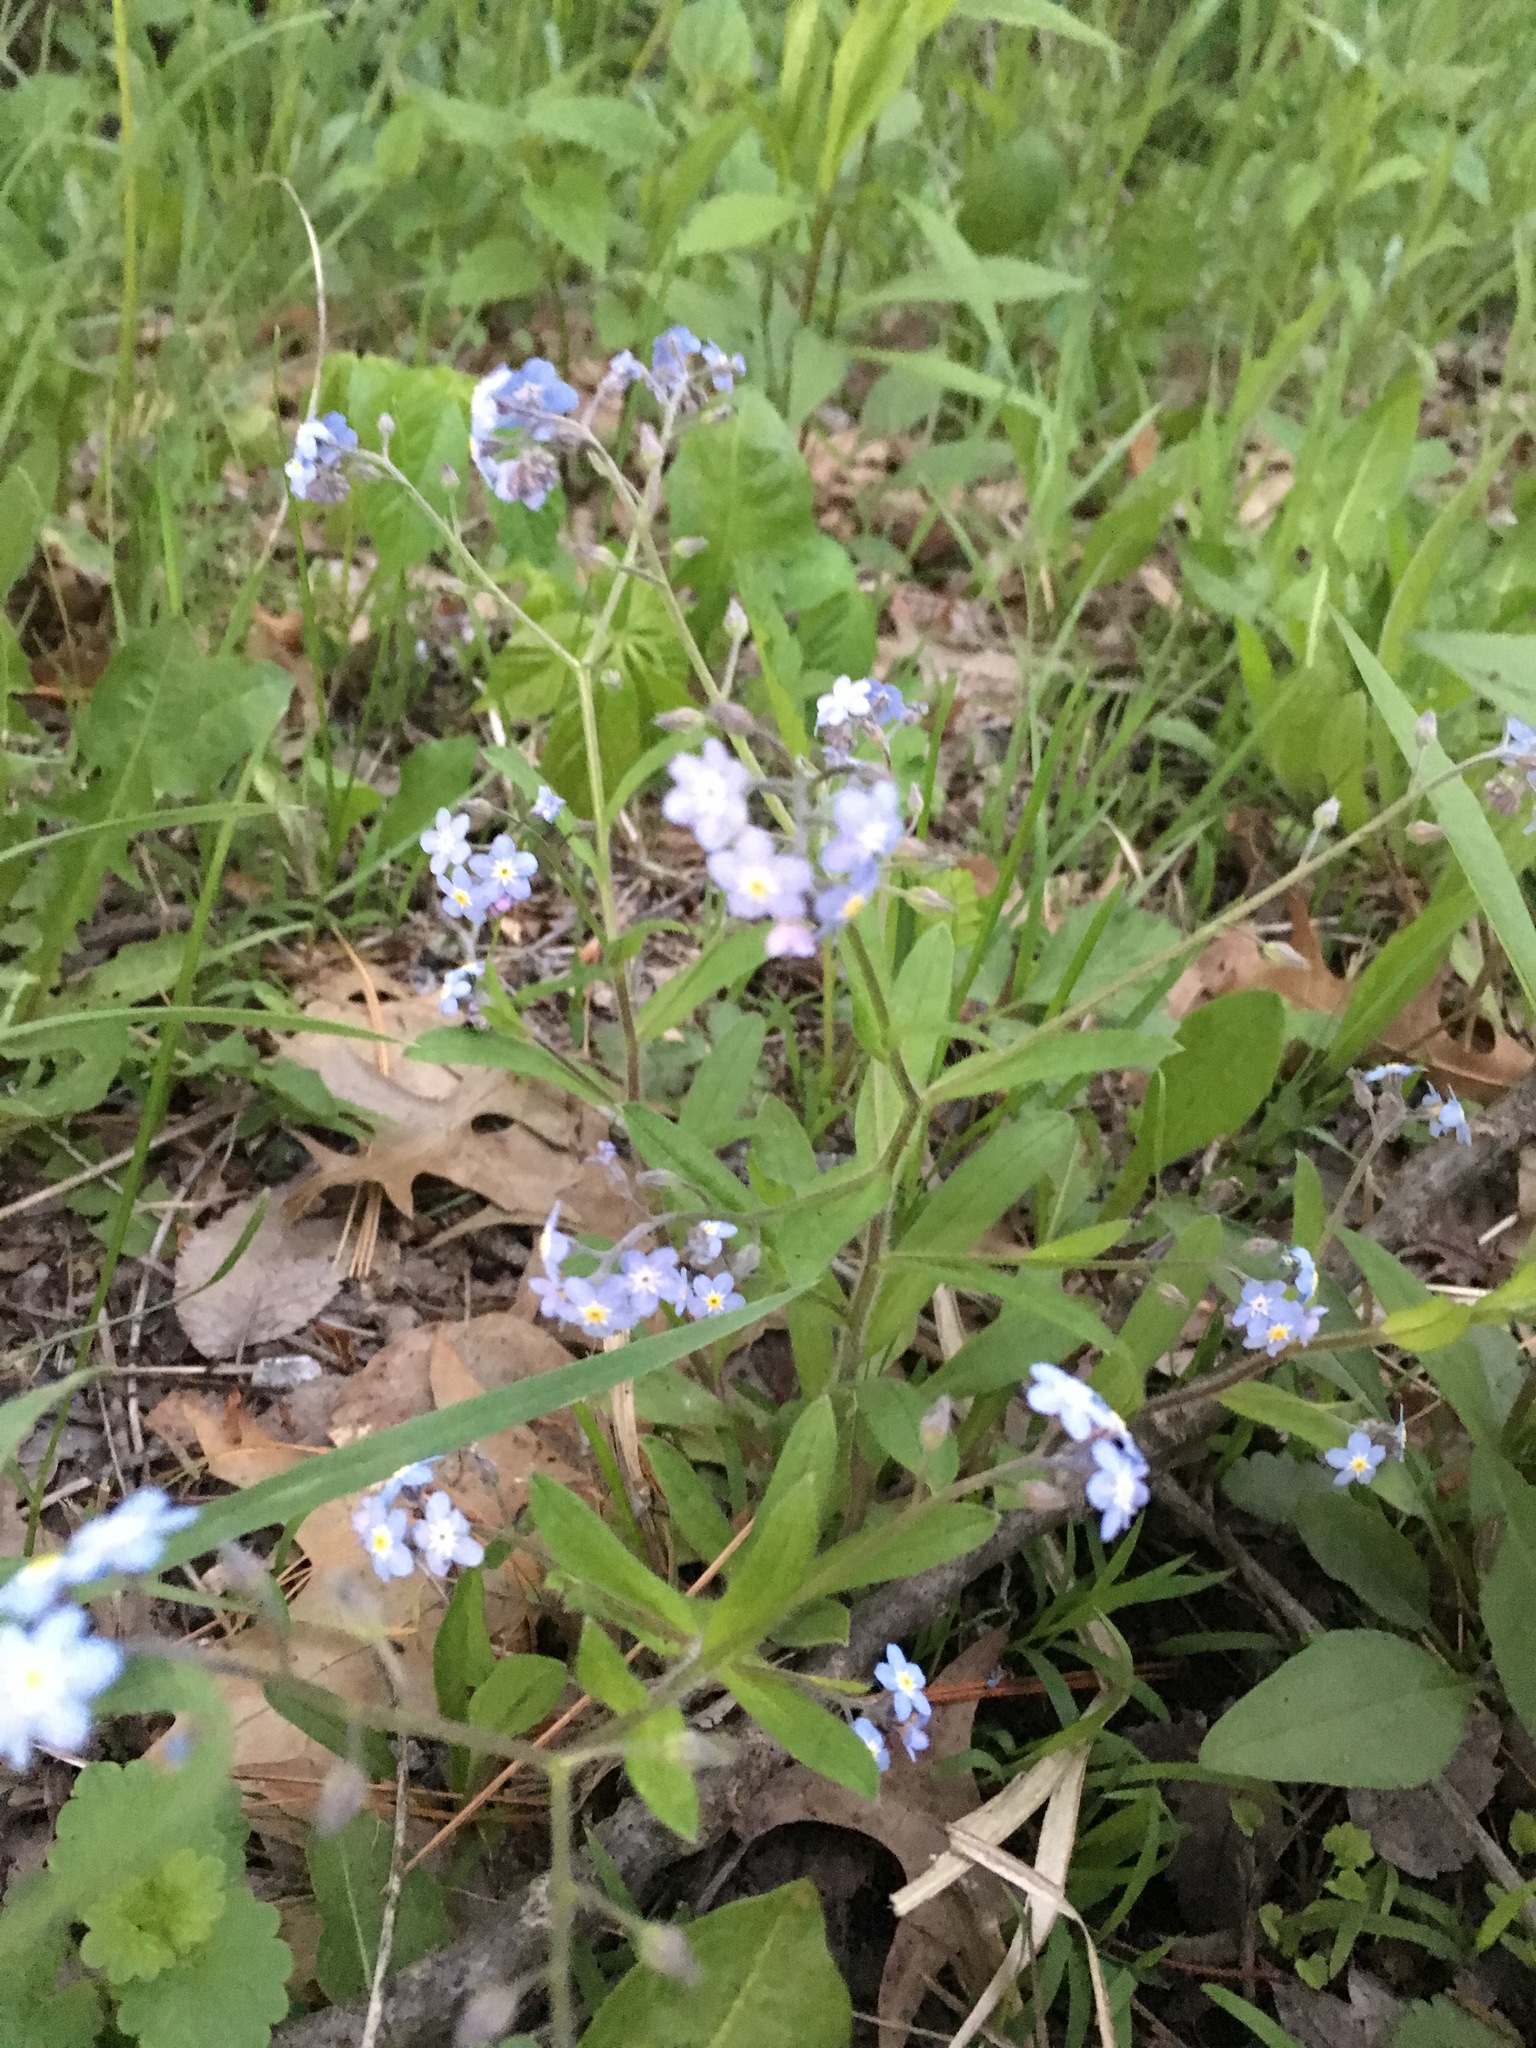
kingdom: Plantae
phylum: Tracheophyta
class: Magnoliopsida
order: Boraginales
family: Boraginaceae
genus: Myosotis
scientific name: Myosotis sylvatica
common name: Wood forget-me-not
